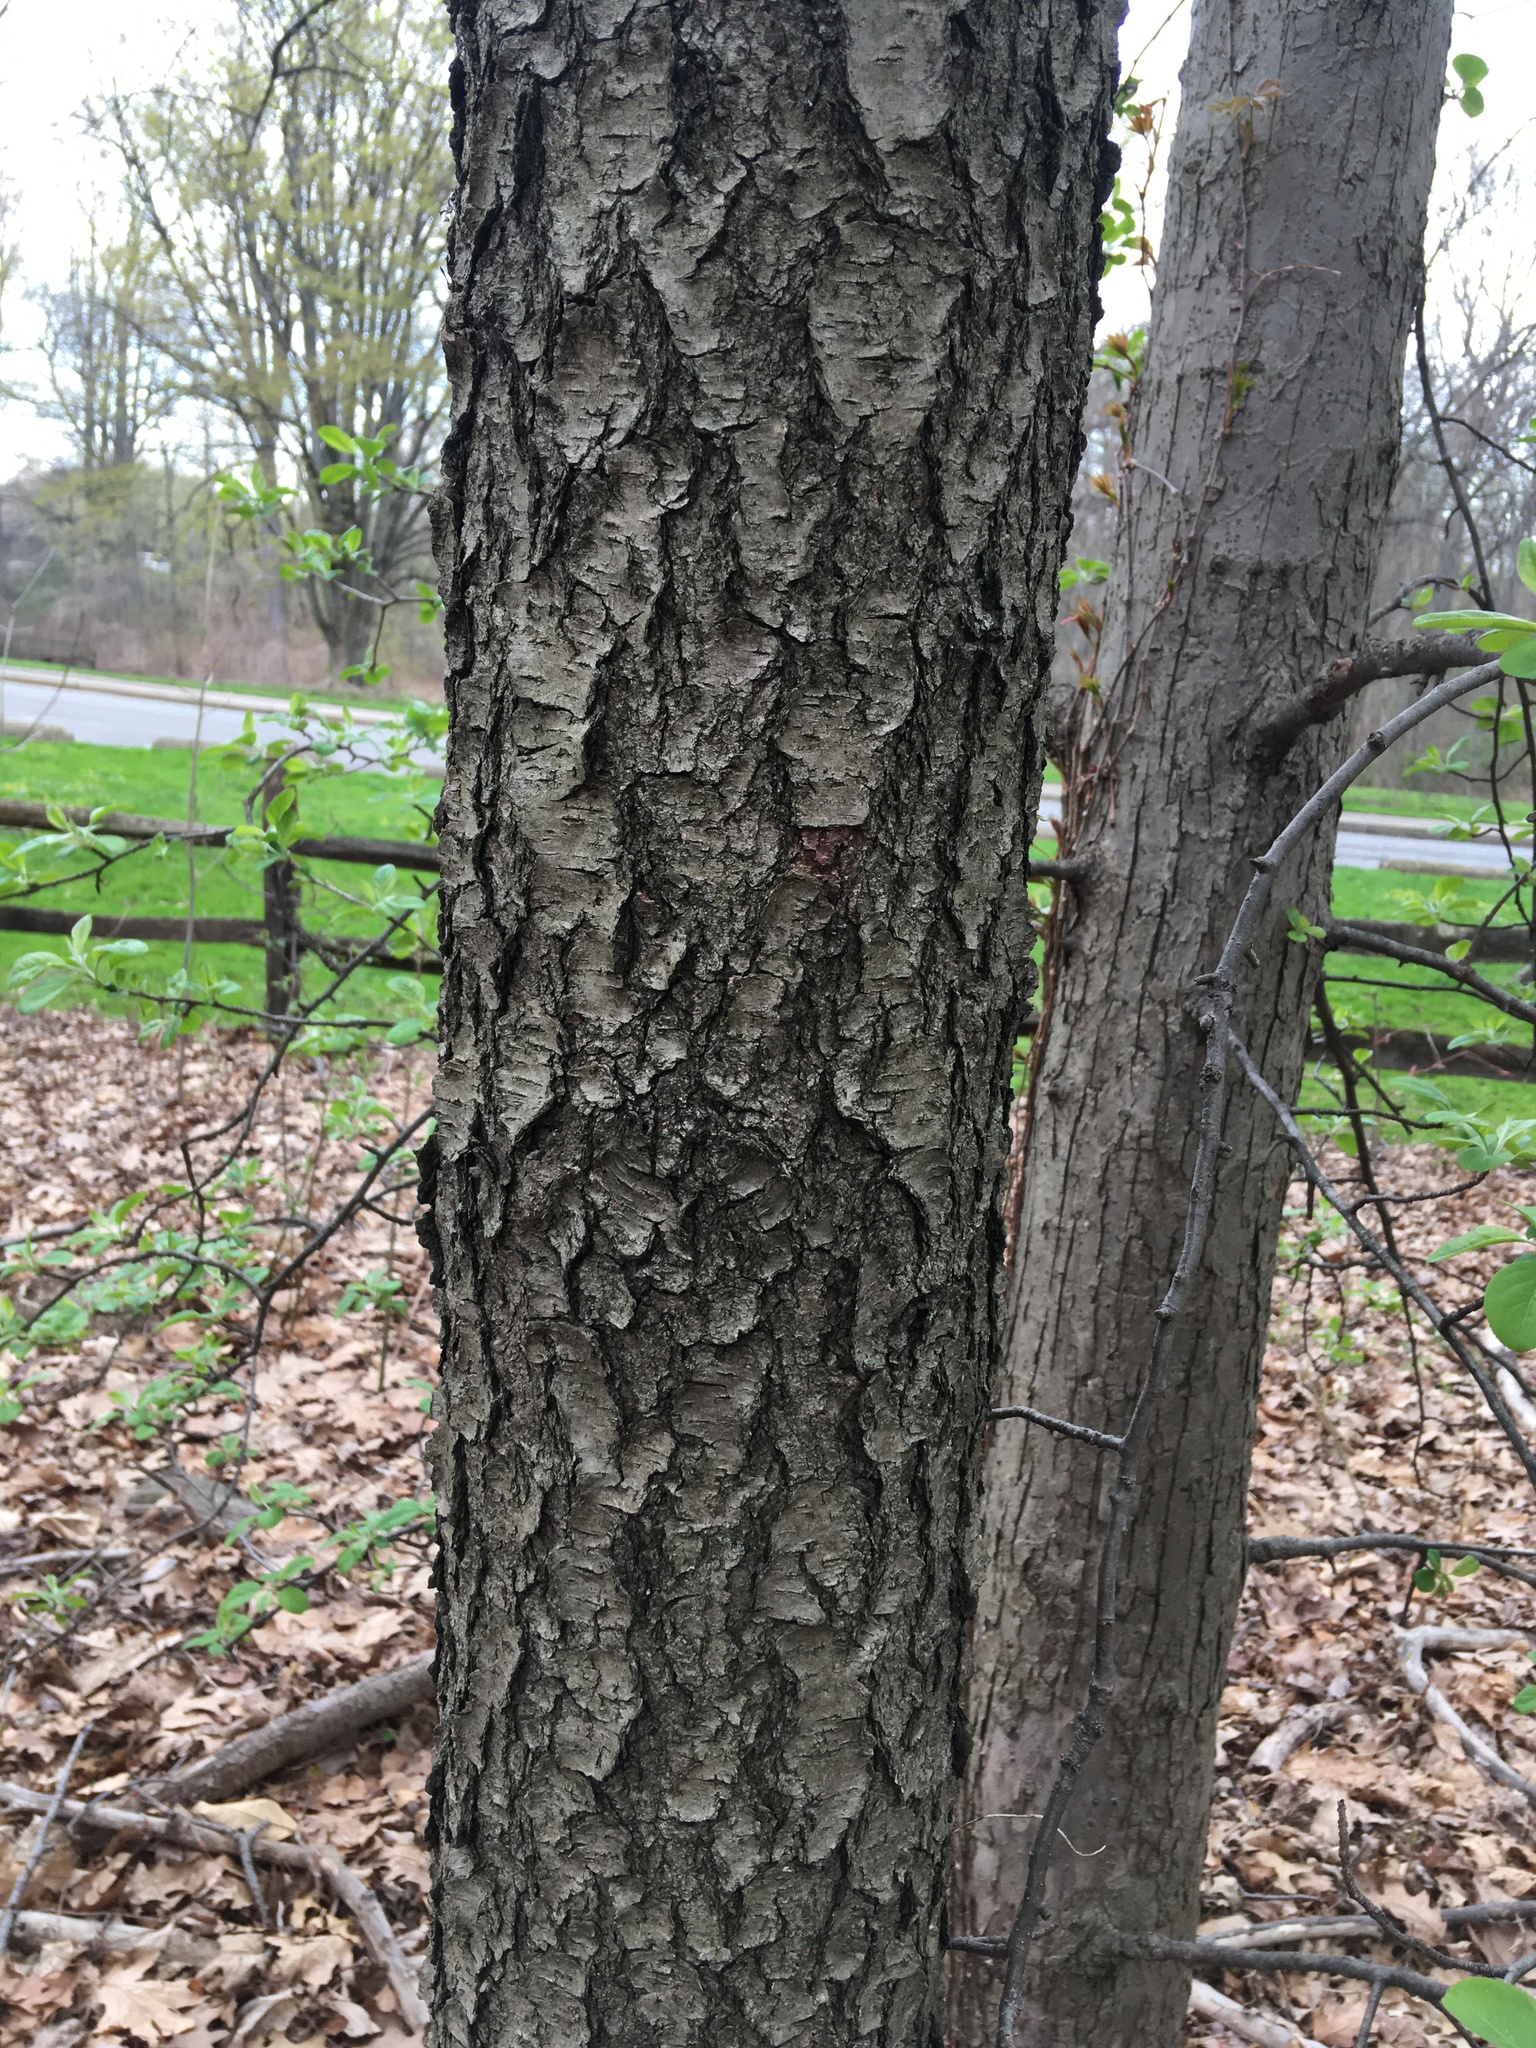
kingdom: Plantae
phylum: Tracheophyta
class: Magnoliopsida
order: Rosales
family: Rosaceae
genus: Prunus
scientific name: Prunus serotina
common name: Black cherry
